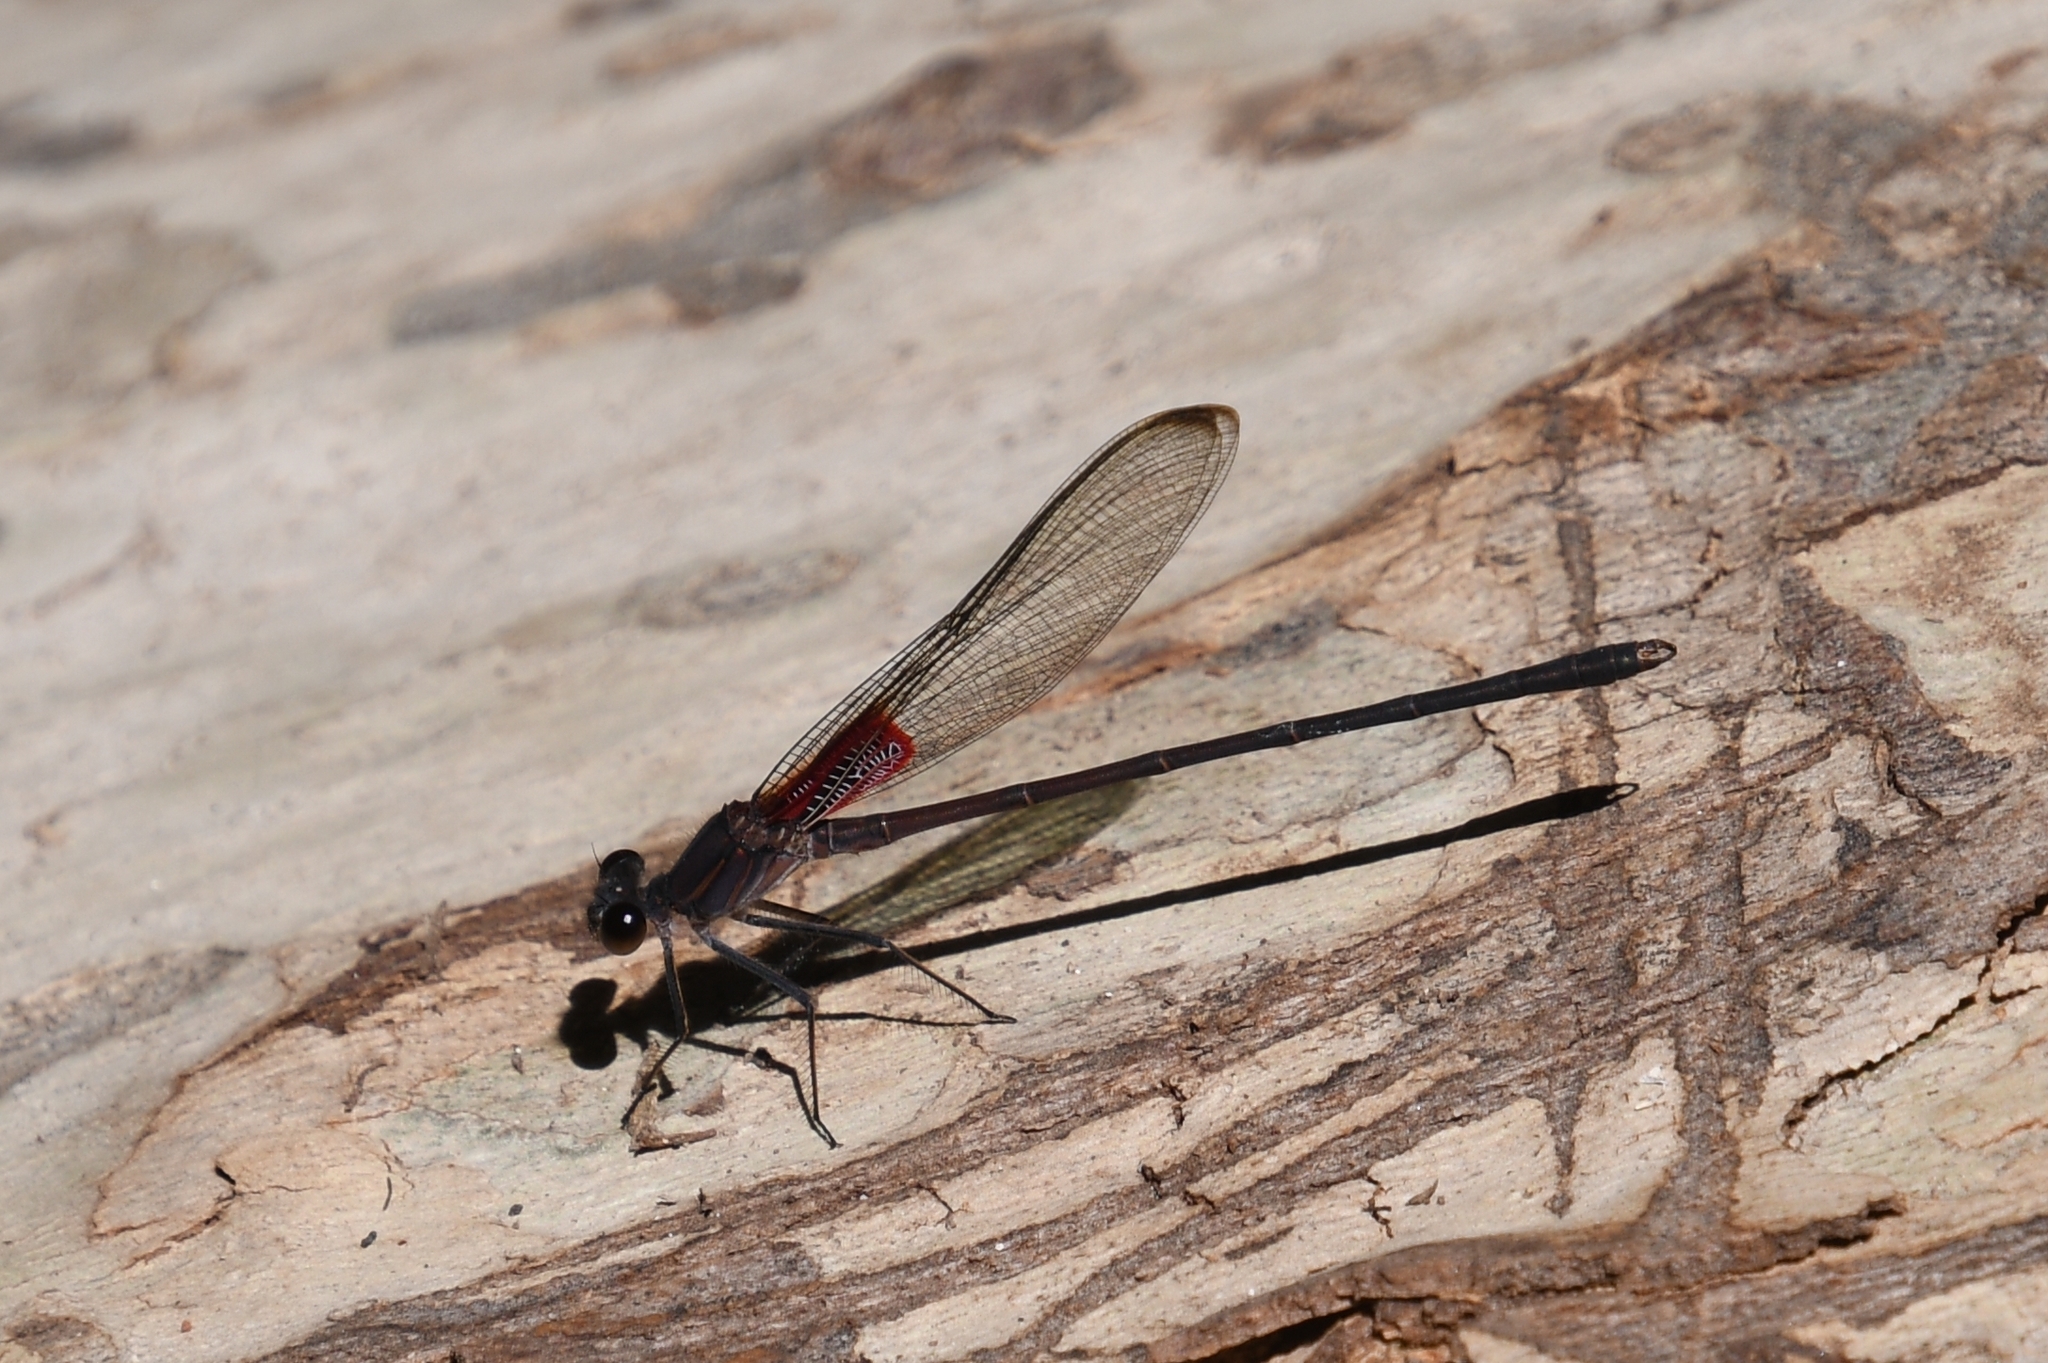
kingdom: Animalia
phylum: Arthropoda
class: Insecta
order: Odonata
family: Calopterygidae
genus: Hetaerina
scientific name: Hetaerina vulnerata
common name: Canyon rubyspot
